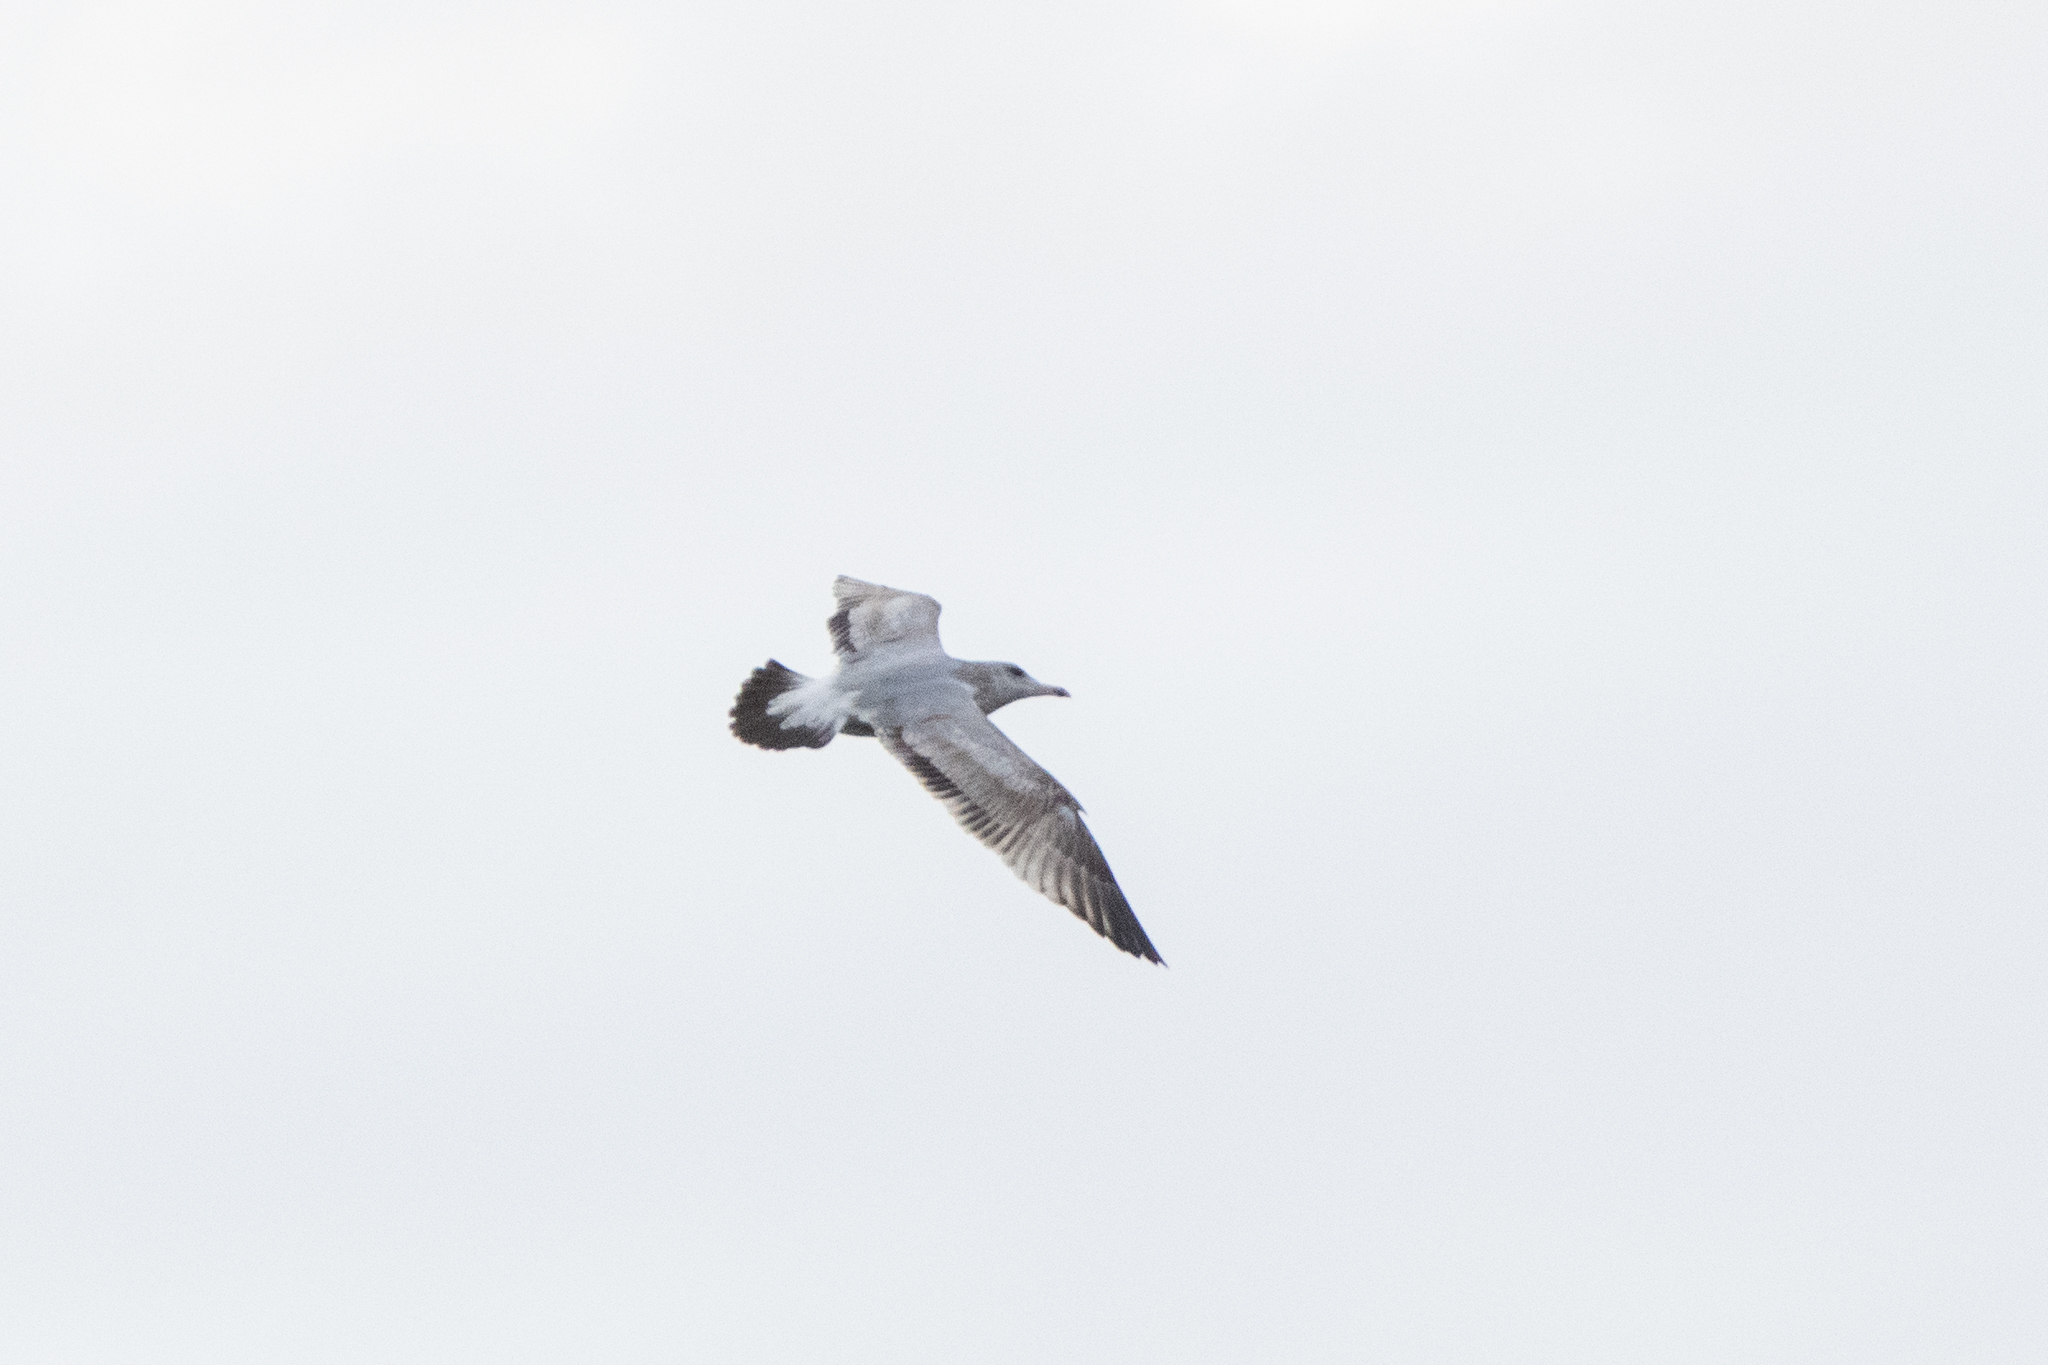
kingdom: Animalia
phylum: Chordata
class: Aves
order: Charadriiformes
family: Laridae
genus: Larus
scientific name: Larus delawarensis
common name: Ring-billed gull
